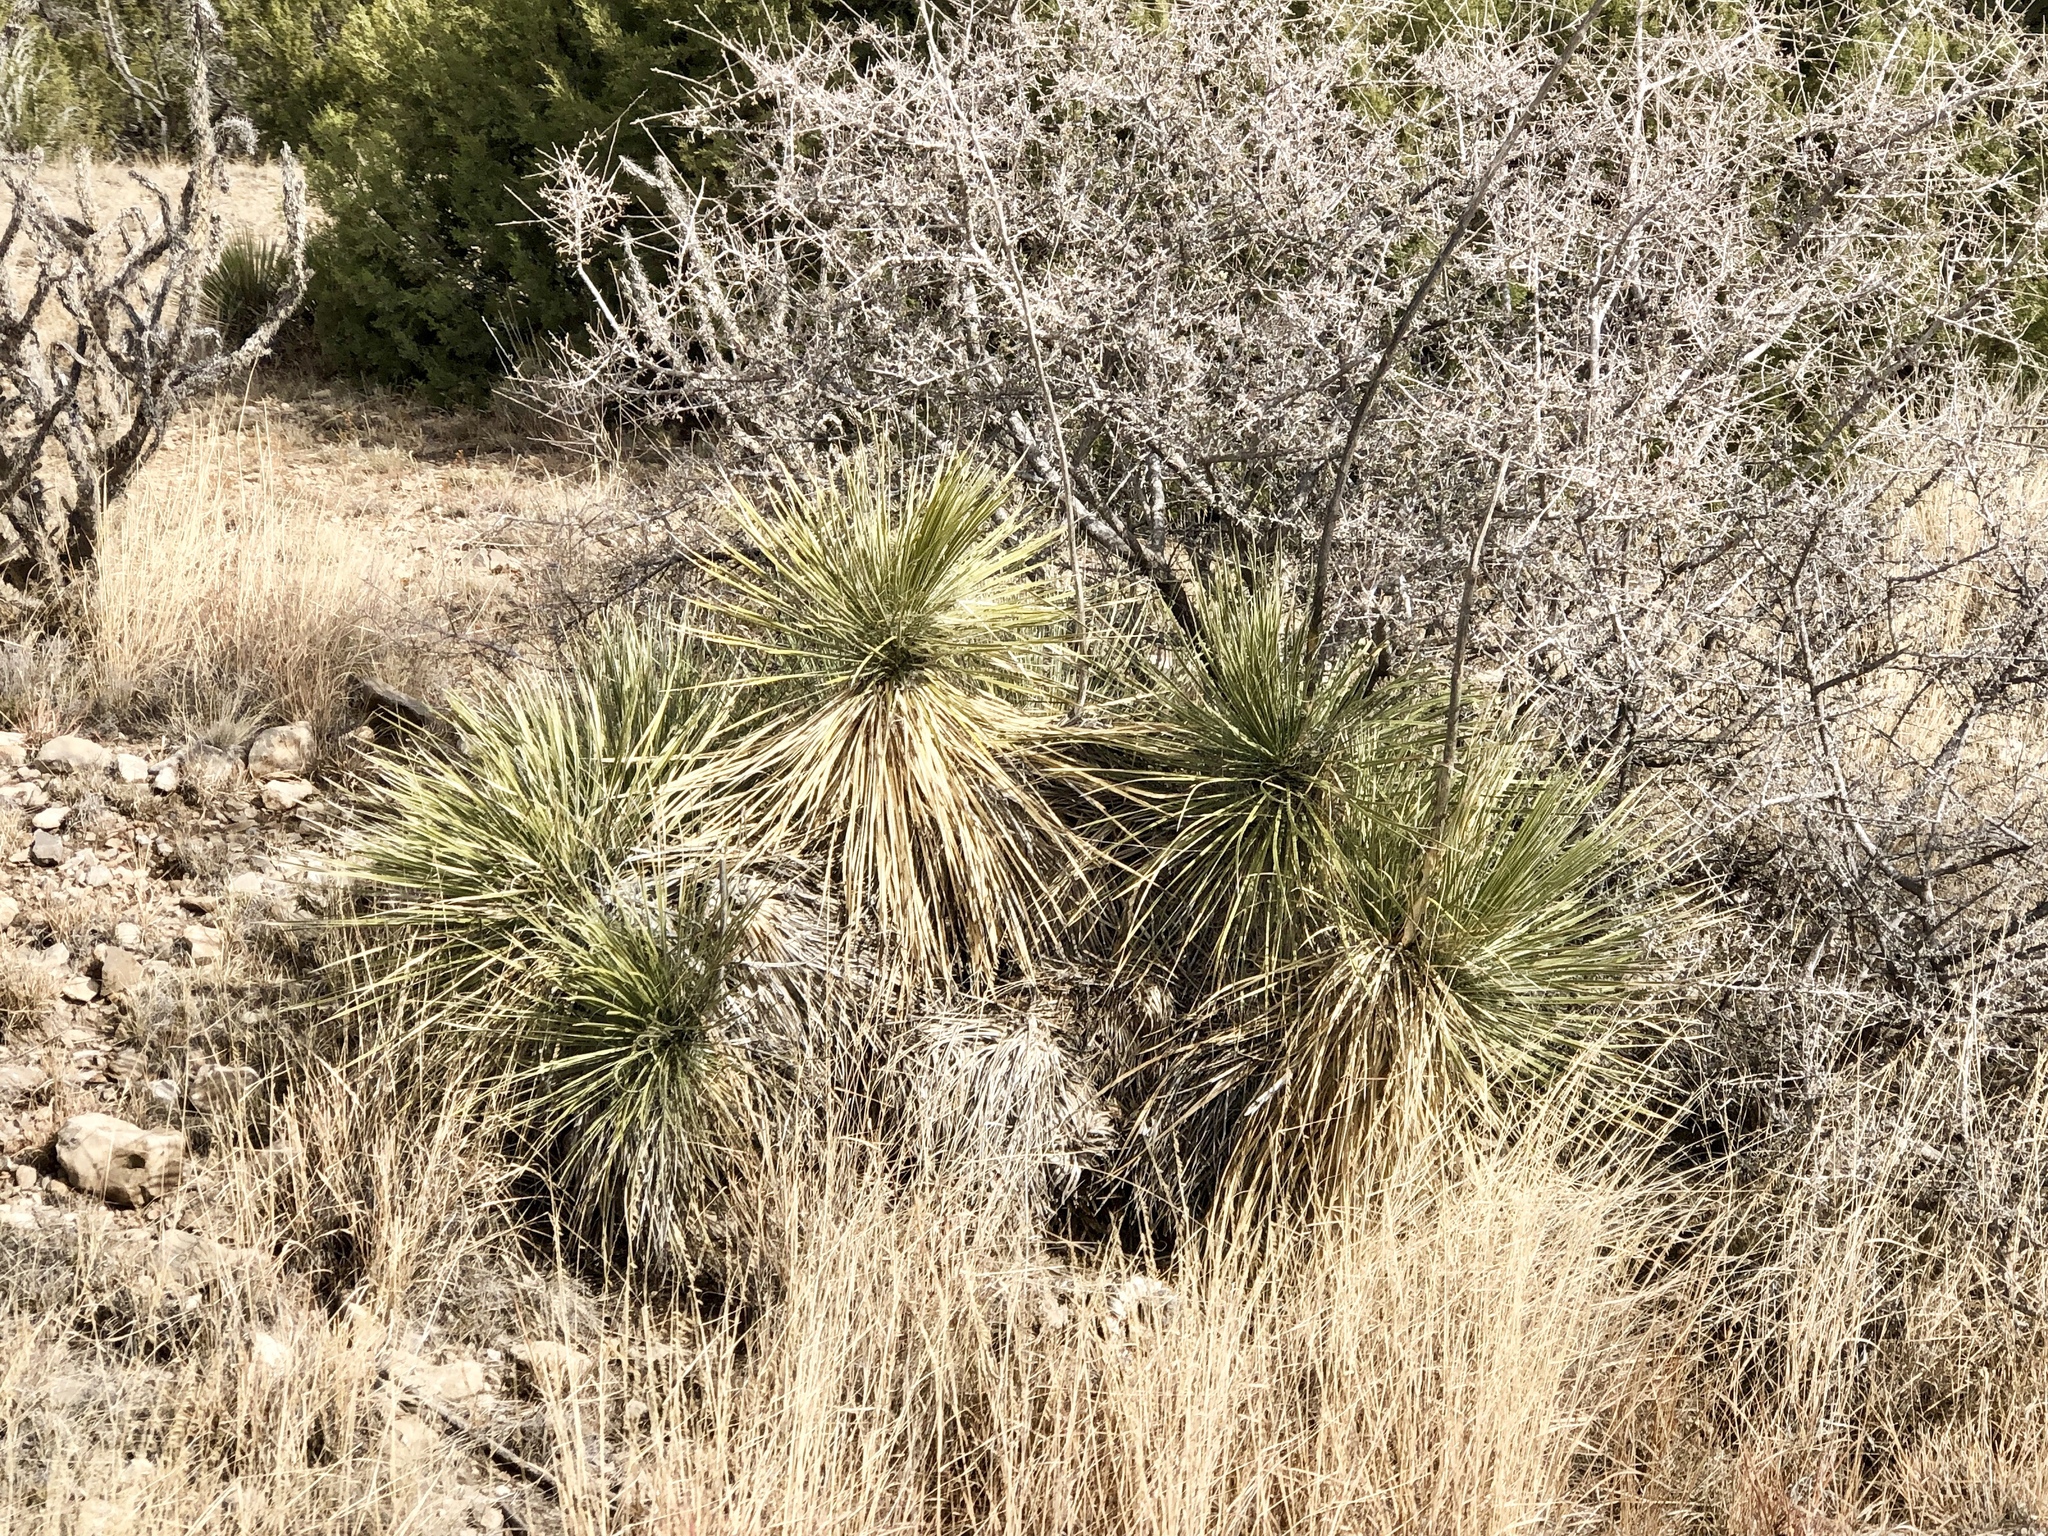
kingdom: Plantae
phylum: Tracheophyta
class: Liliopsida
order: Asparagales
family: Asparagaceae
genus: Yucca
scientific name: Yucca elata
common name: Palmella
